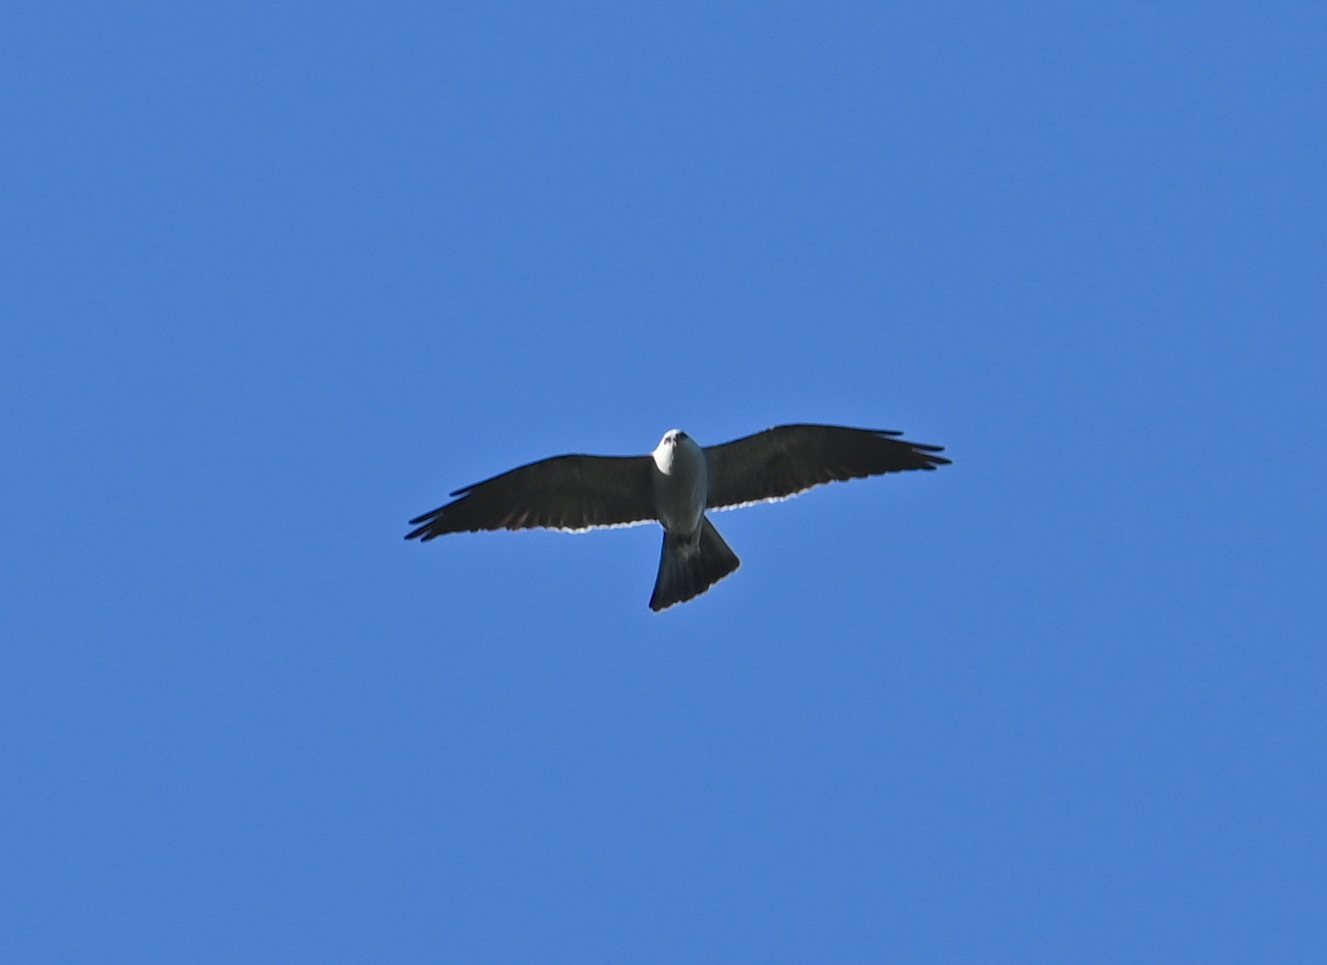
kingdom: Animalia
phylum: Chordata
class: Aves
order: Accipitriformes
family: Accipitridae
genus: Ictinia
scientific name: Ictinia mississippiensis
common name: Mississippi kite
